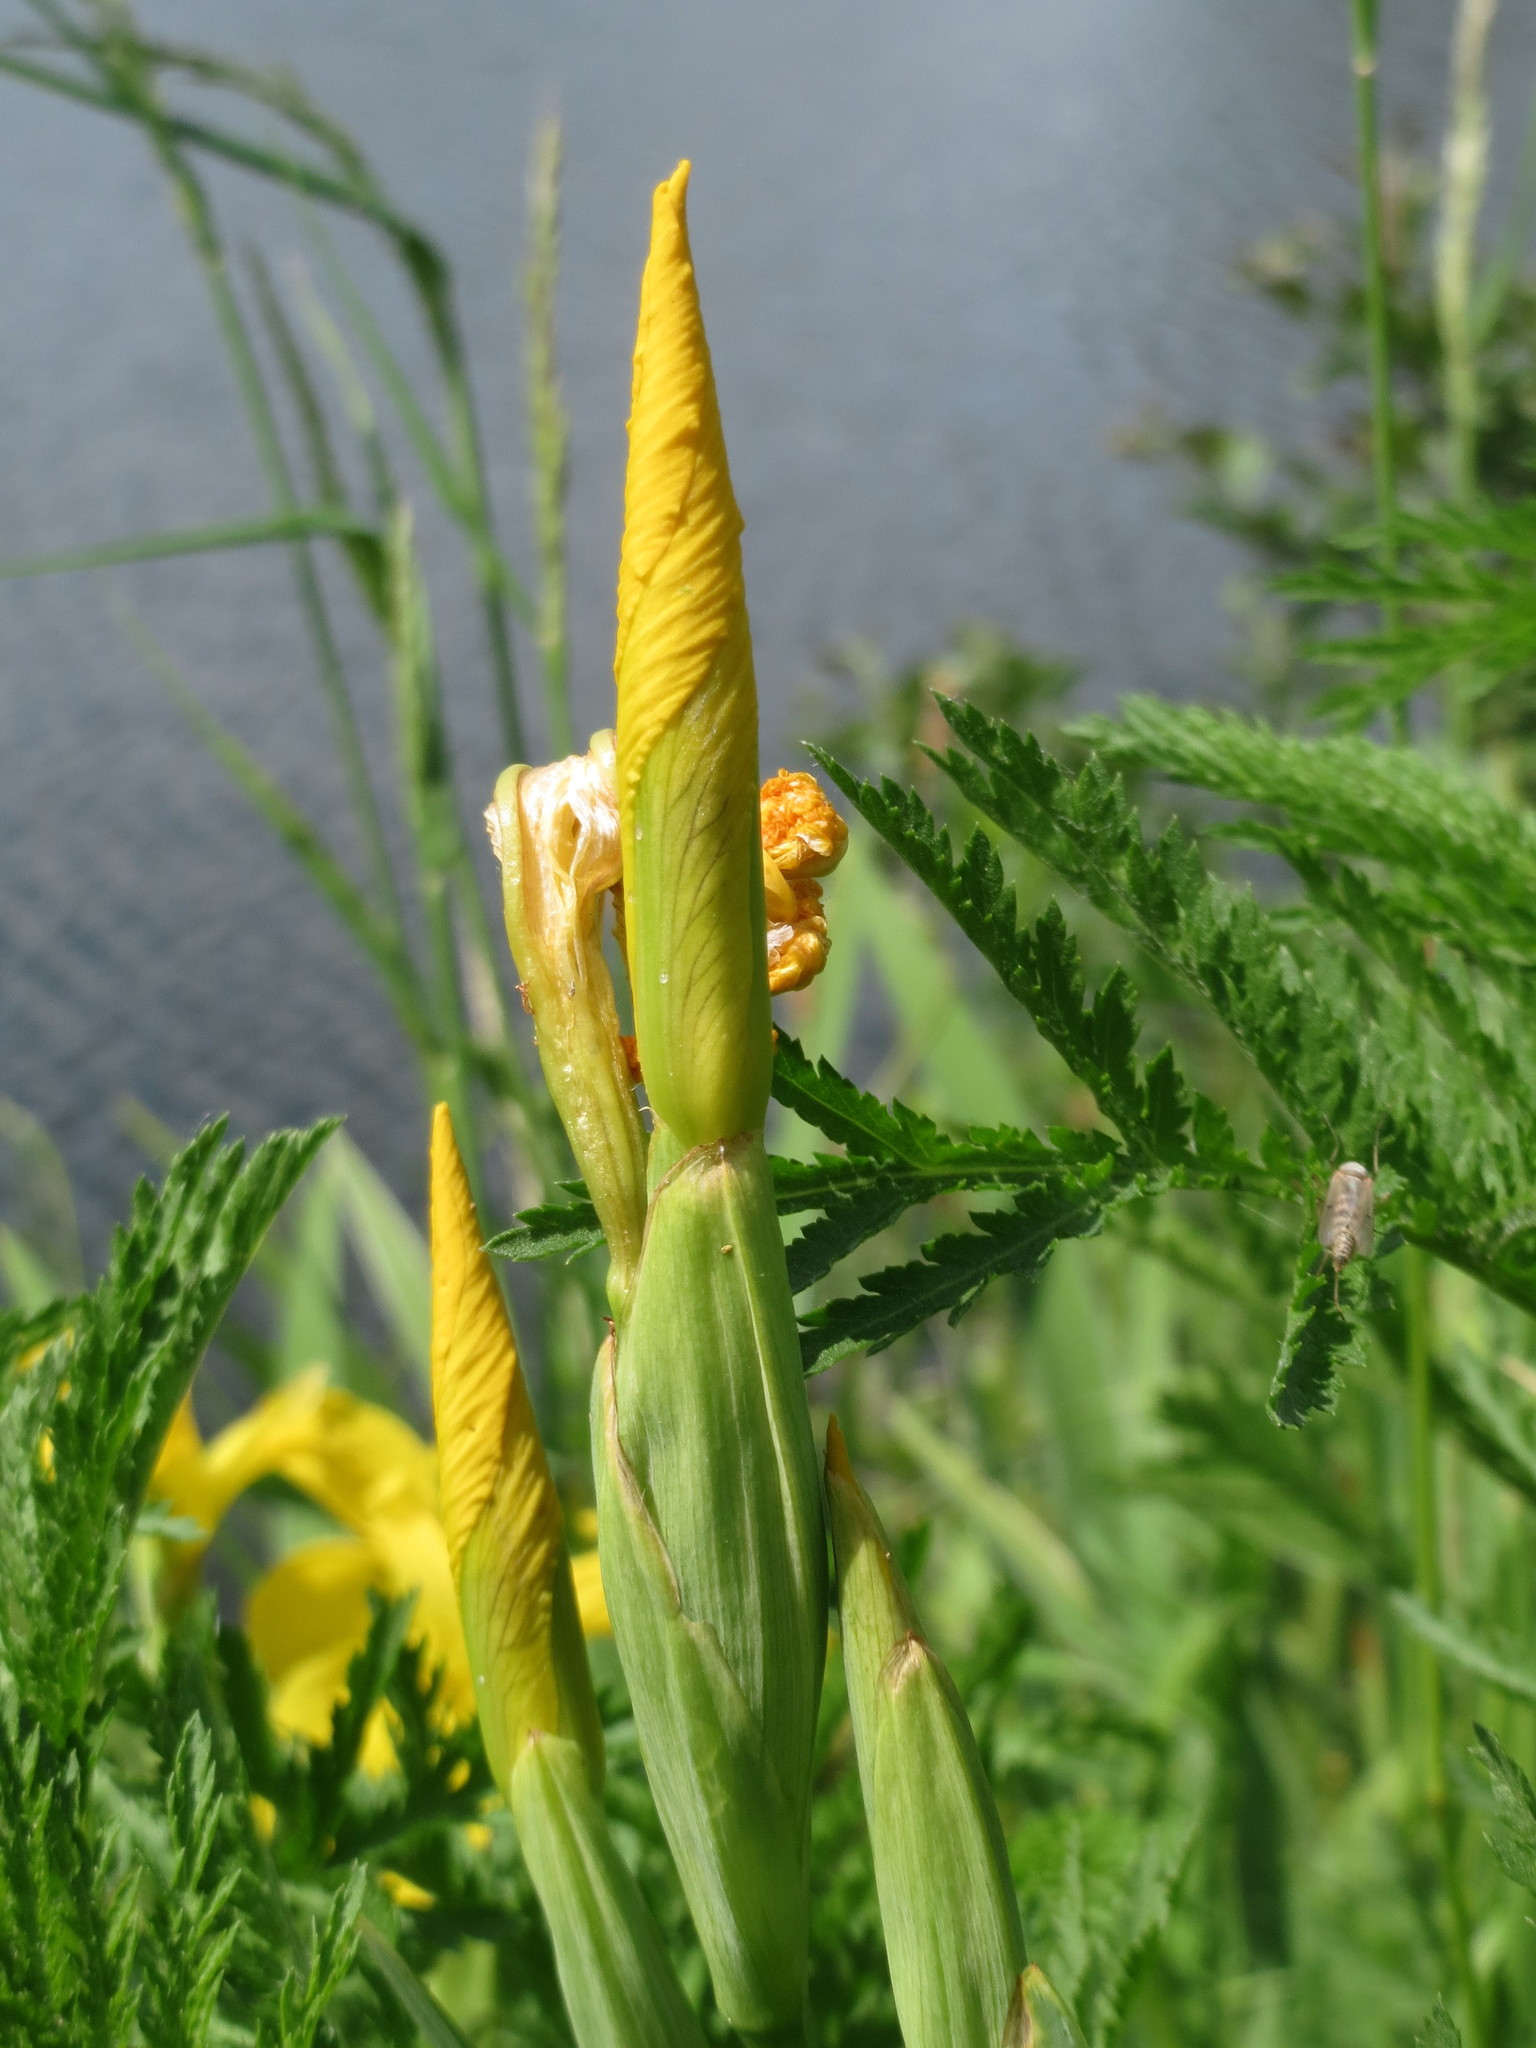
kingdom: Plantae
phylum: Tracheophyta
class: Liliopsida
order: Asparagales
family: Iridaceae
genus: Iris
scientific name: Iris pseudacorus
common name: Yellow flag
